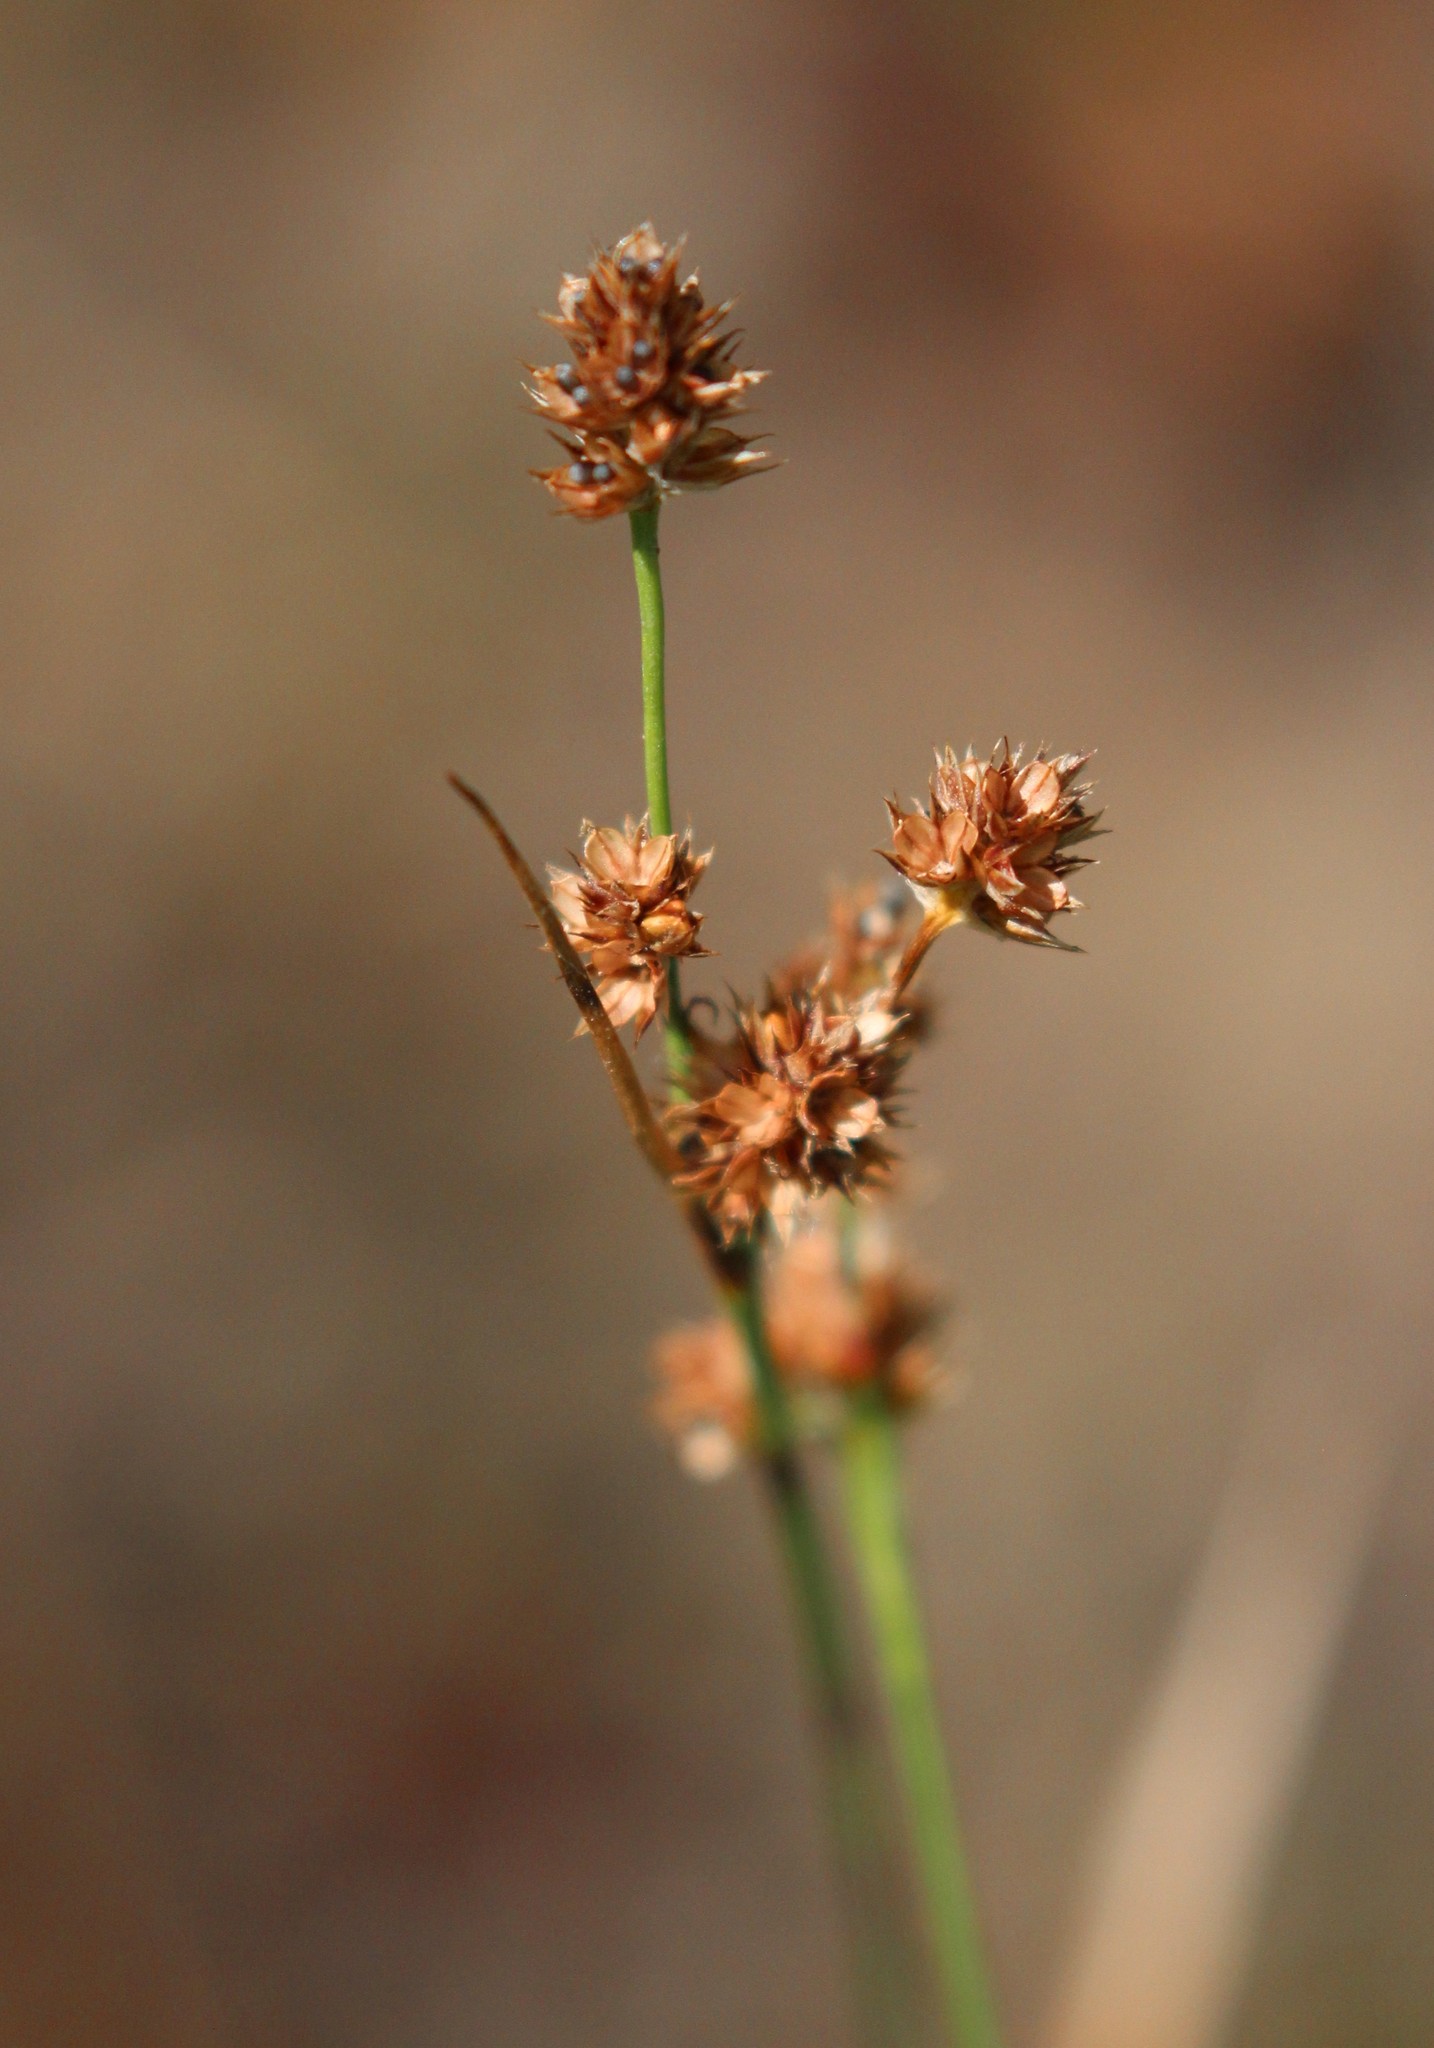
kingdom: Plantae
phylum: Tracheophyta
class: Liliopsida
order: Poales
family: Juncaceae
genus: Luzula
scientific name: Luzula multiflora
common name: Heath wood-rush
